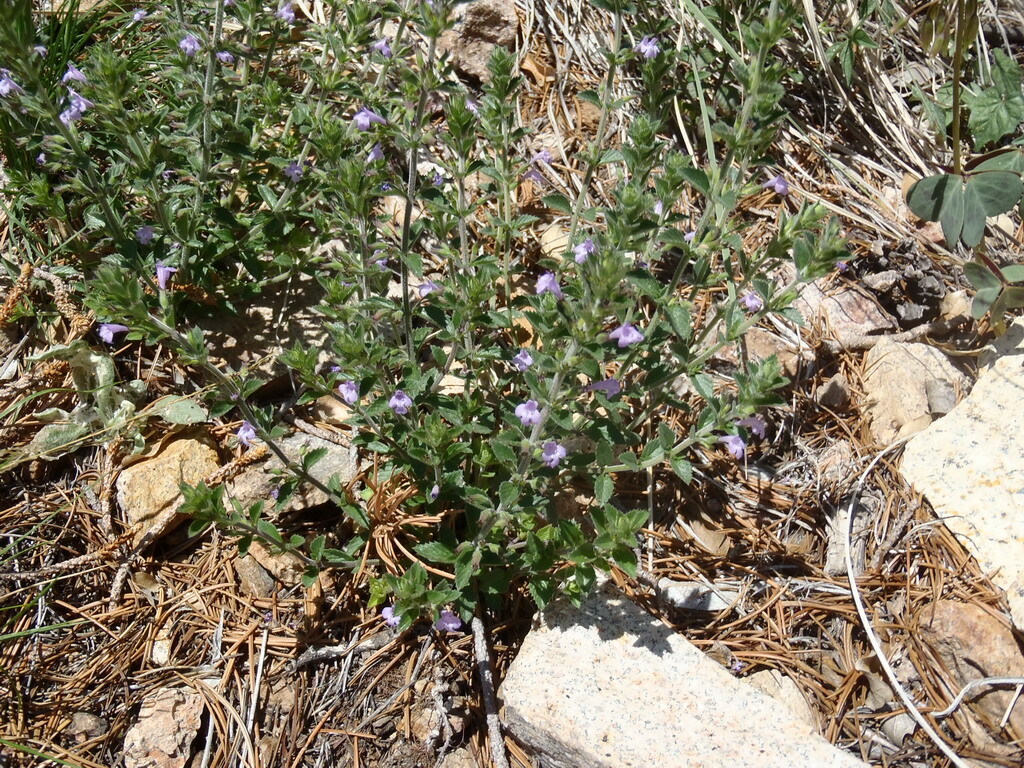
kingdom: Plantae
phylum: Tracheophyta
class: Magnoliopsida
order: Lamiales
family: Lamiaceae
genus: Hedeoma
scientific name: Hedeoma plicata
